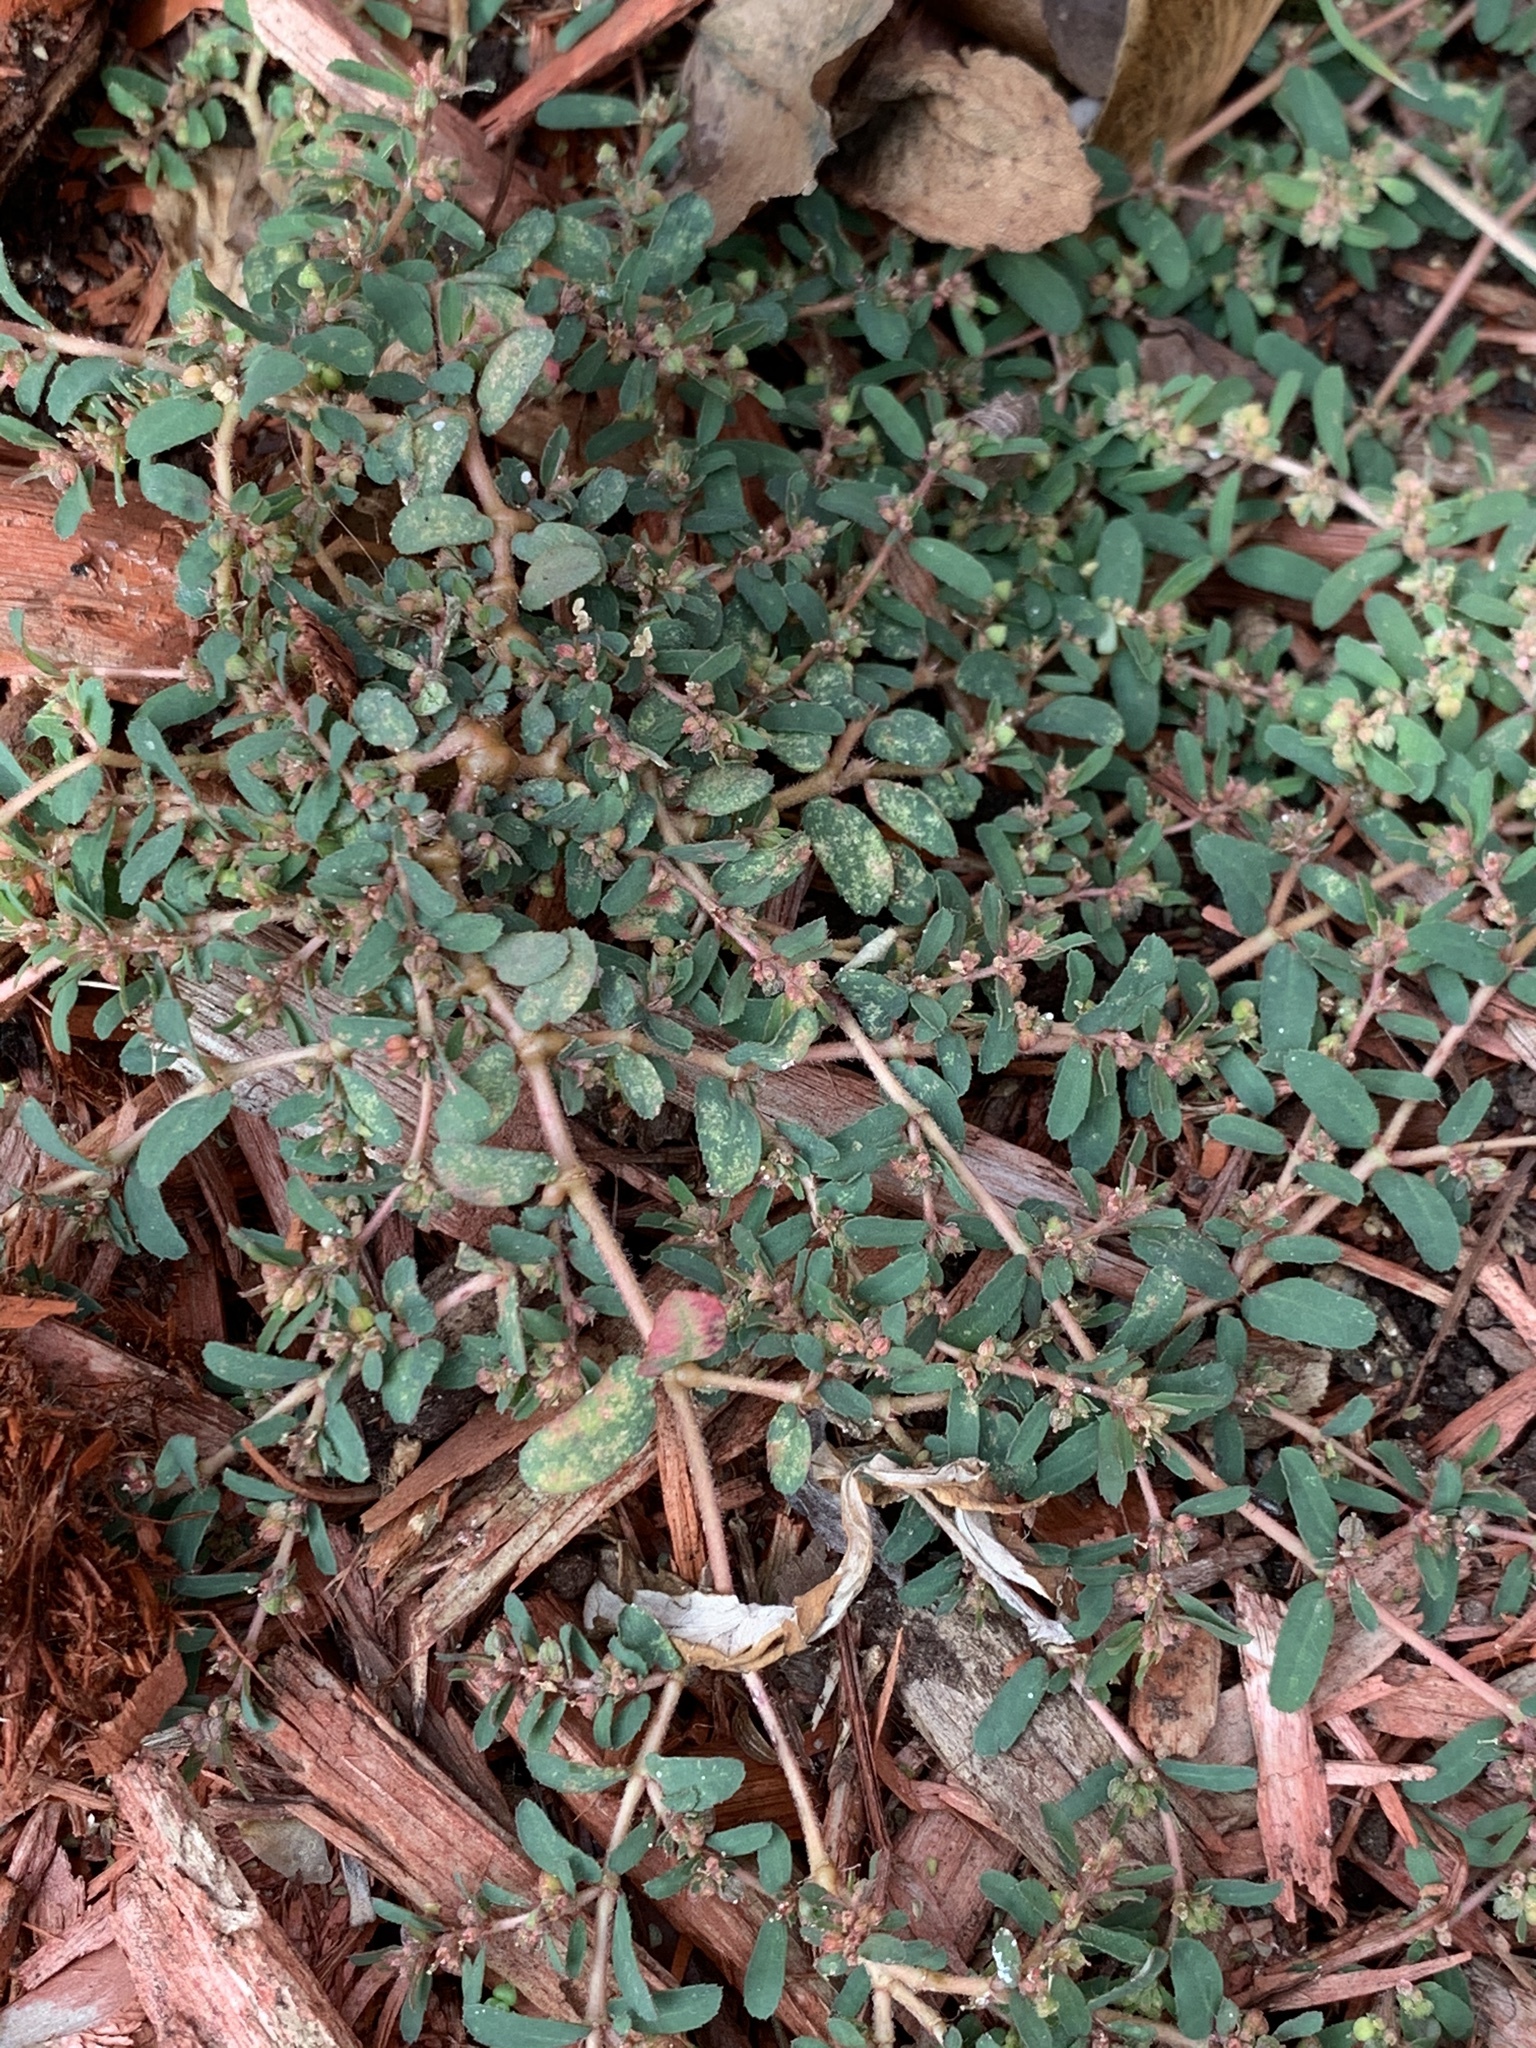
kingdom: Plantae
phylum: Tracheophyta
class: Magnoliopsida
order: Malpighiales
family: Euphorbiaceae
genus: Euphorbia
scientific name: Euphorbia maculata
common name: Spotted spurge
